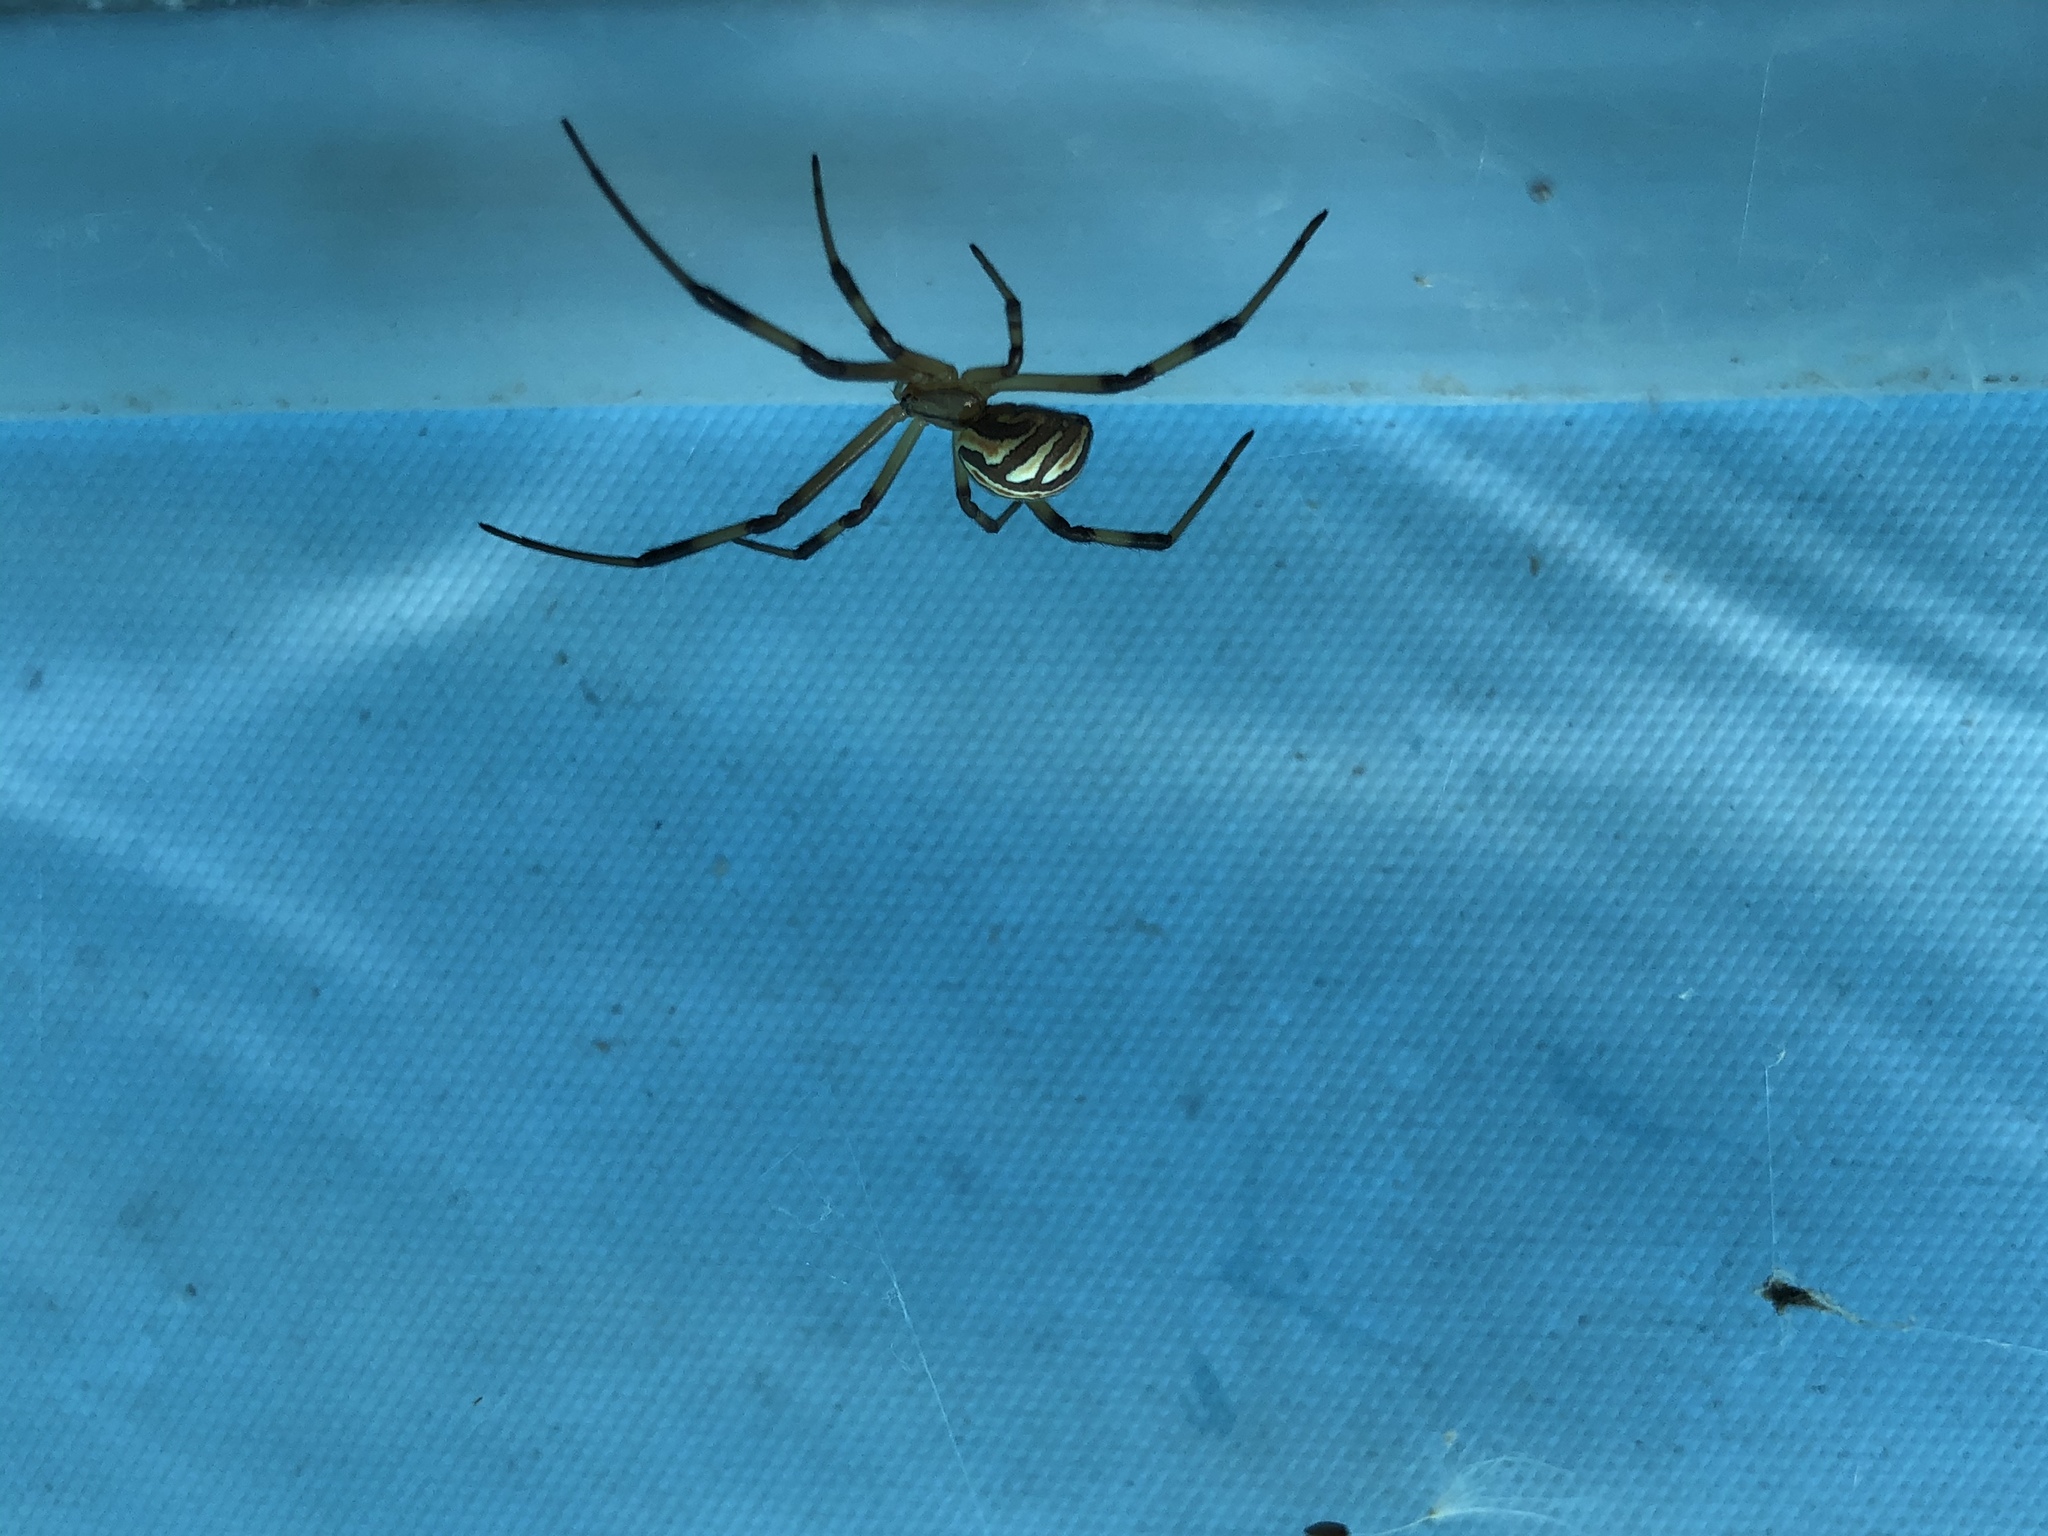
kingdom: Animalia
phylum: Arthropoda
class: Arachnida
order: Araneae
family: Theridiidae
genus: Latrodectus
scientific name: Latrodectus hesperus
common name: Western black widow
